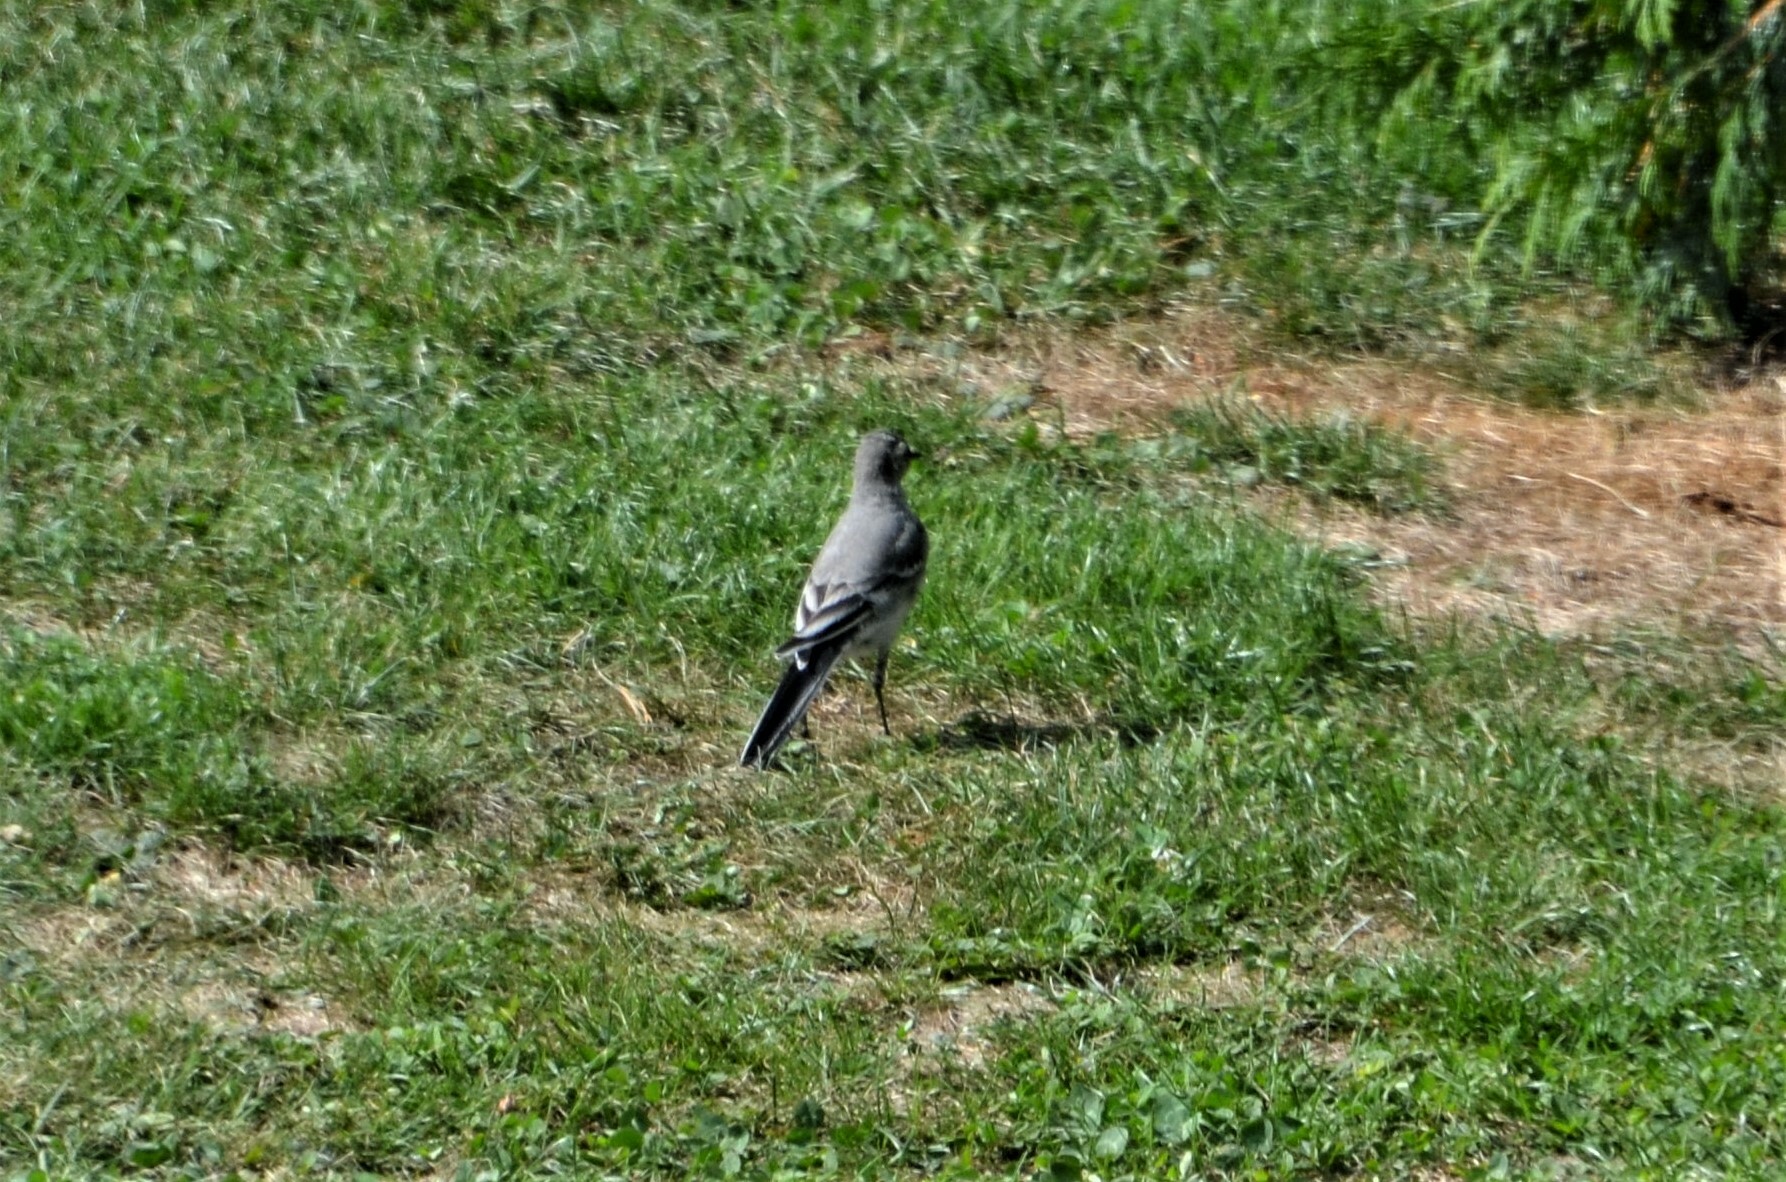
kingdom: Animalia
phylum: Chordata
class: Aves
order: Passeriformes
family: Motacillidae
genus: Motacilla
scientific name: Motacilla alba
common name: White wagtail
